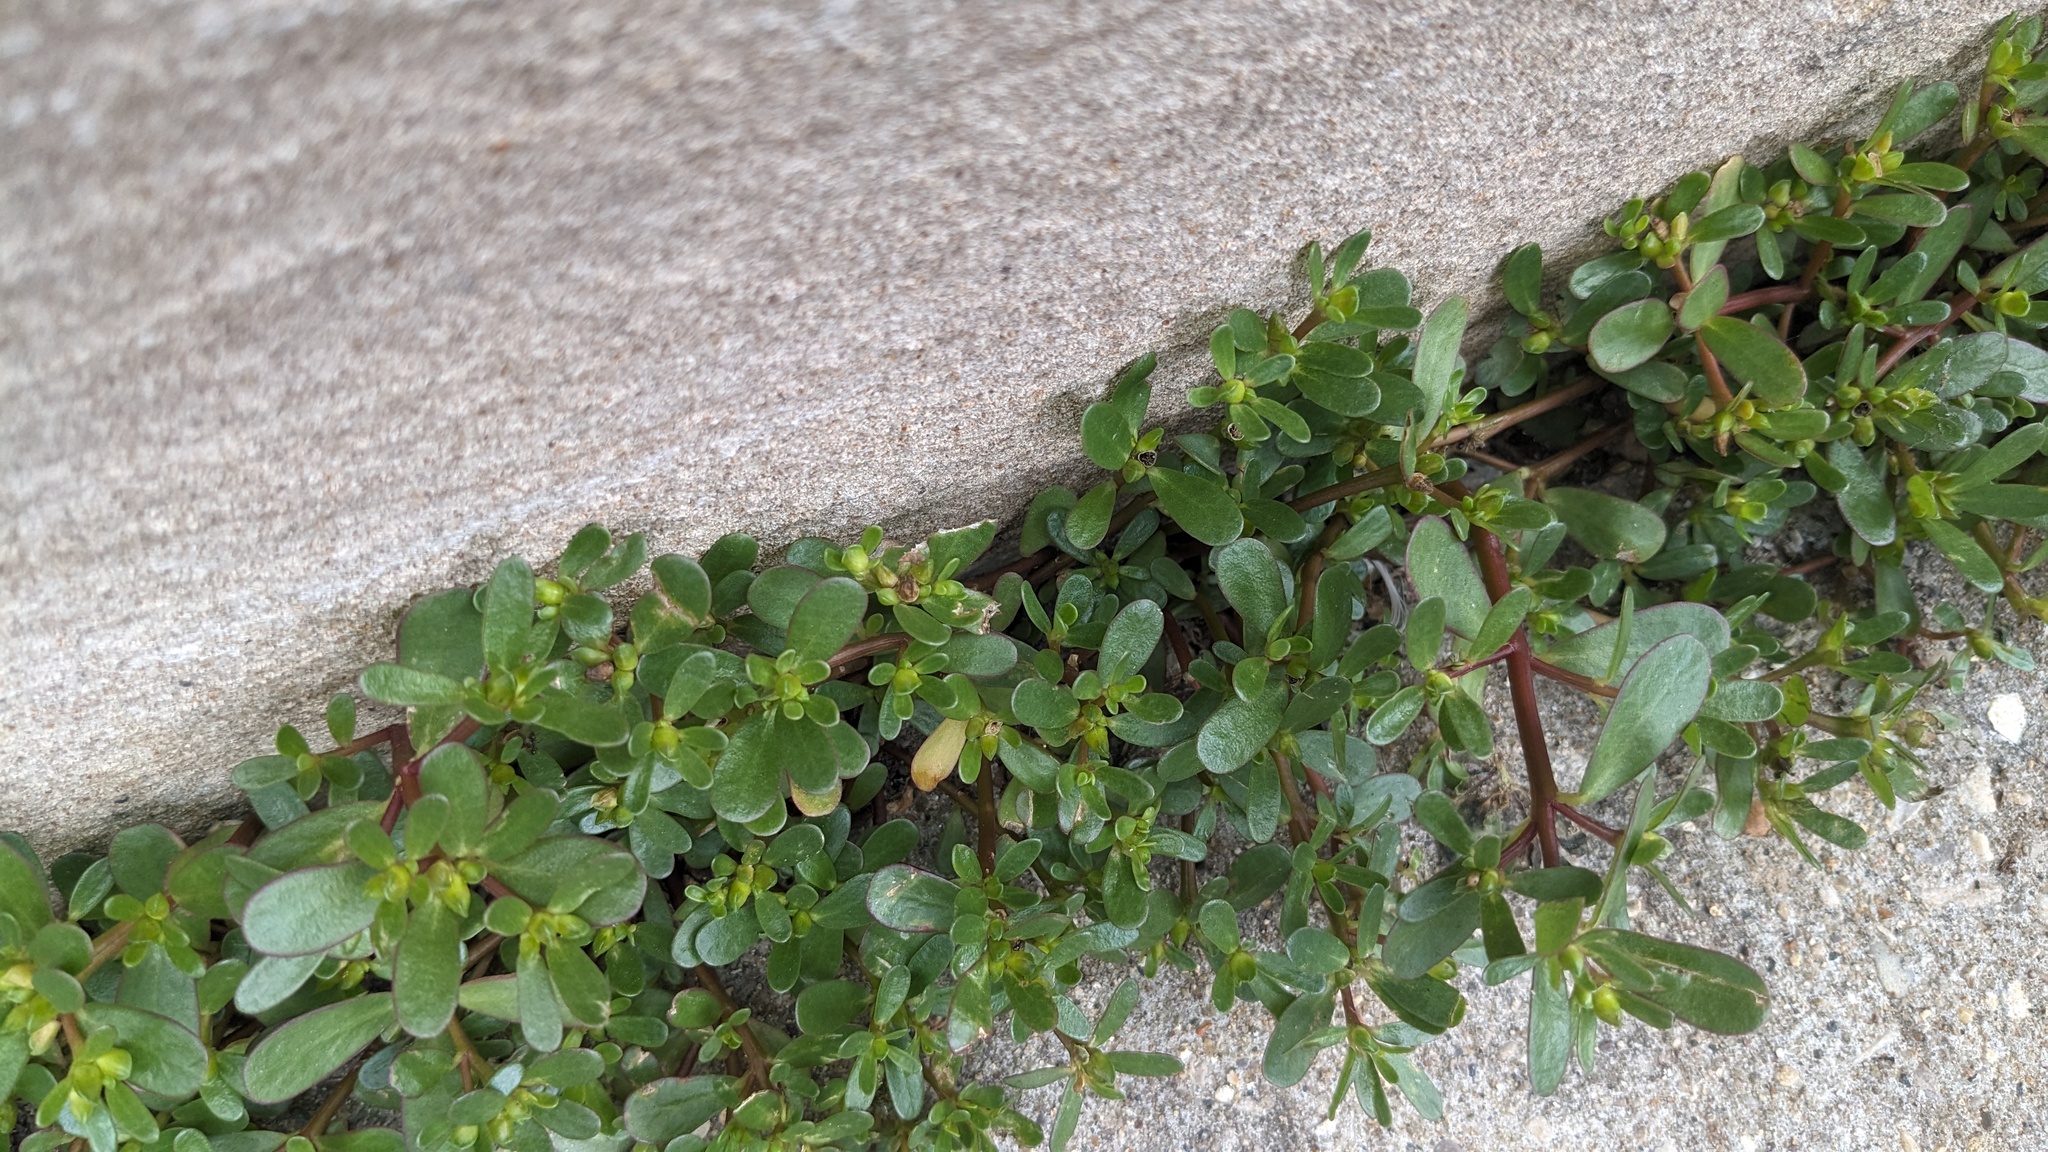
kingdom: Plantae
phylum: Tracheophyta
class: Magnoliopsida
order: Caryophyllales
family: Portulacaceae
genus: Portulaca
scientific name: Portulaca oleracea
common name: Common purslane
